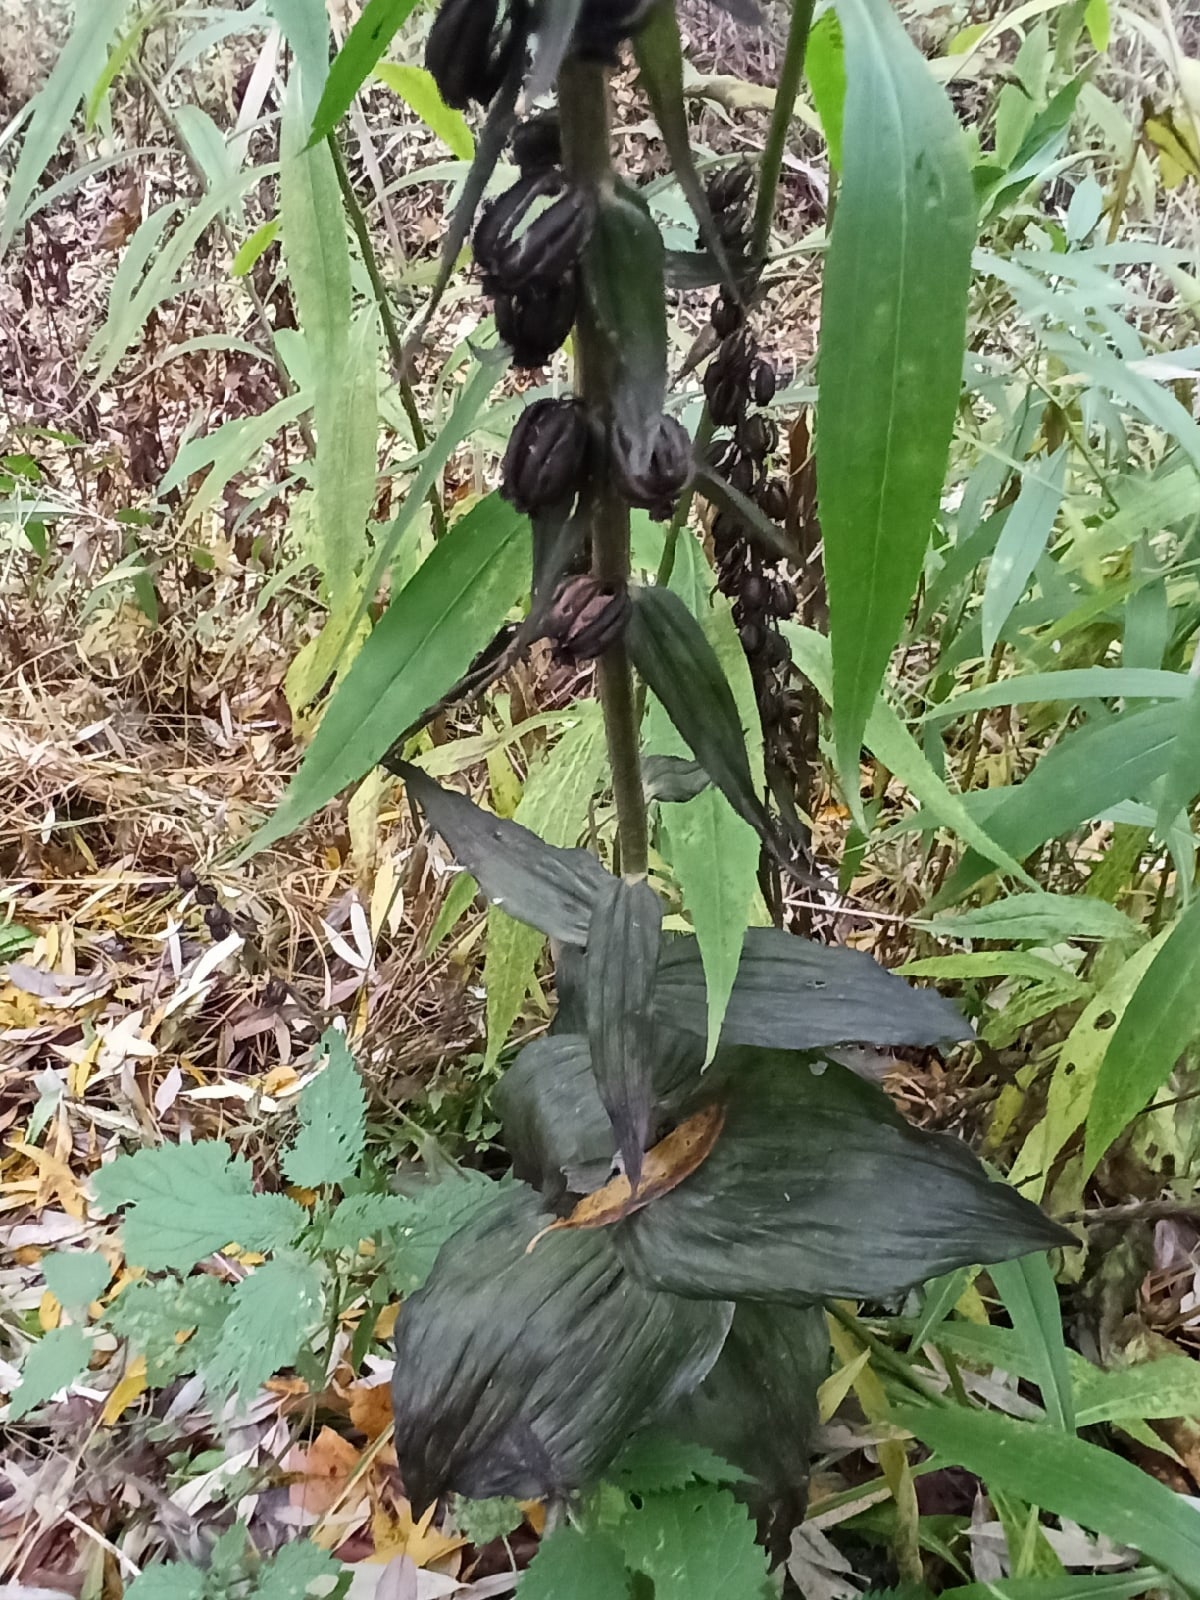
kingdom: Plantae
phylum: Tracheophyta
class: Liliopsida
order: Asparagales
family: Orchidaceae
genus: Epipactis
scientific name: Epipactis helleborine
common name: Broad-leaved helleborine
